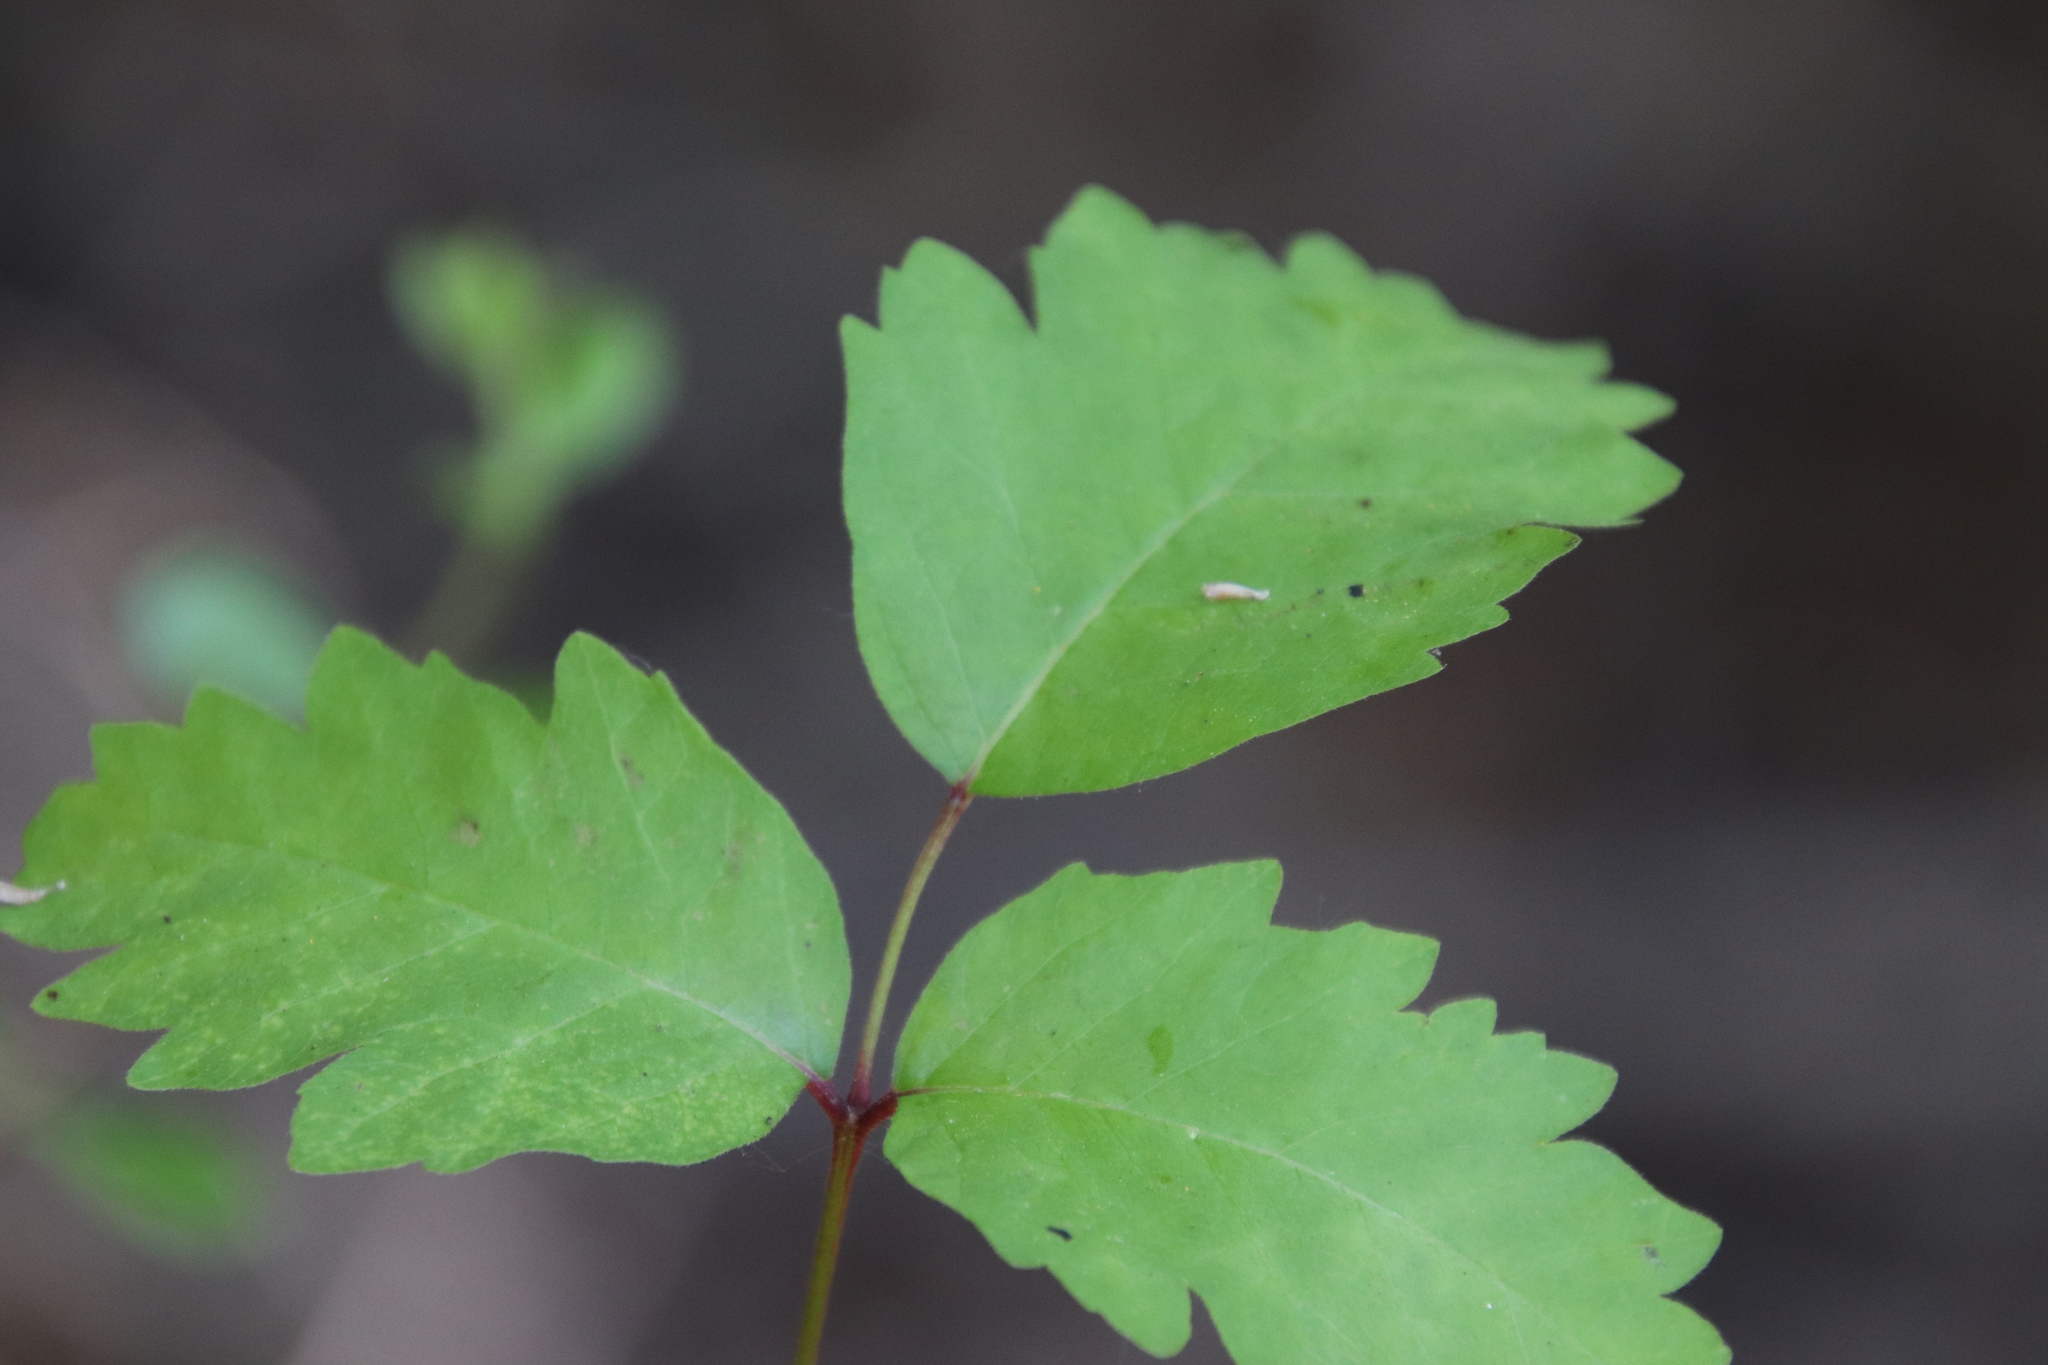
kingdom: Plantae
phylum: Tracheophyta
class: Magnoliopsida
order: Sapindales
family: Anacardiaceae
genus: Toxicodendron
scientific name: Toxicodendron diversilobum
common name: Pacific poison-oak
